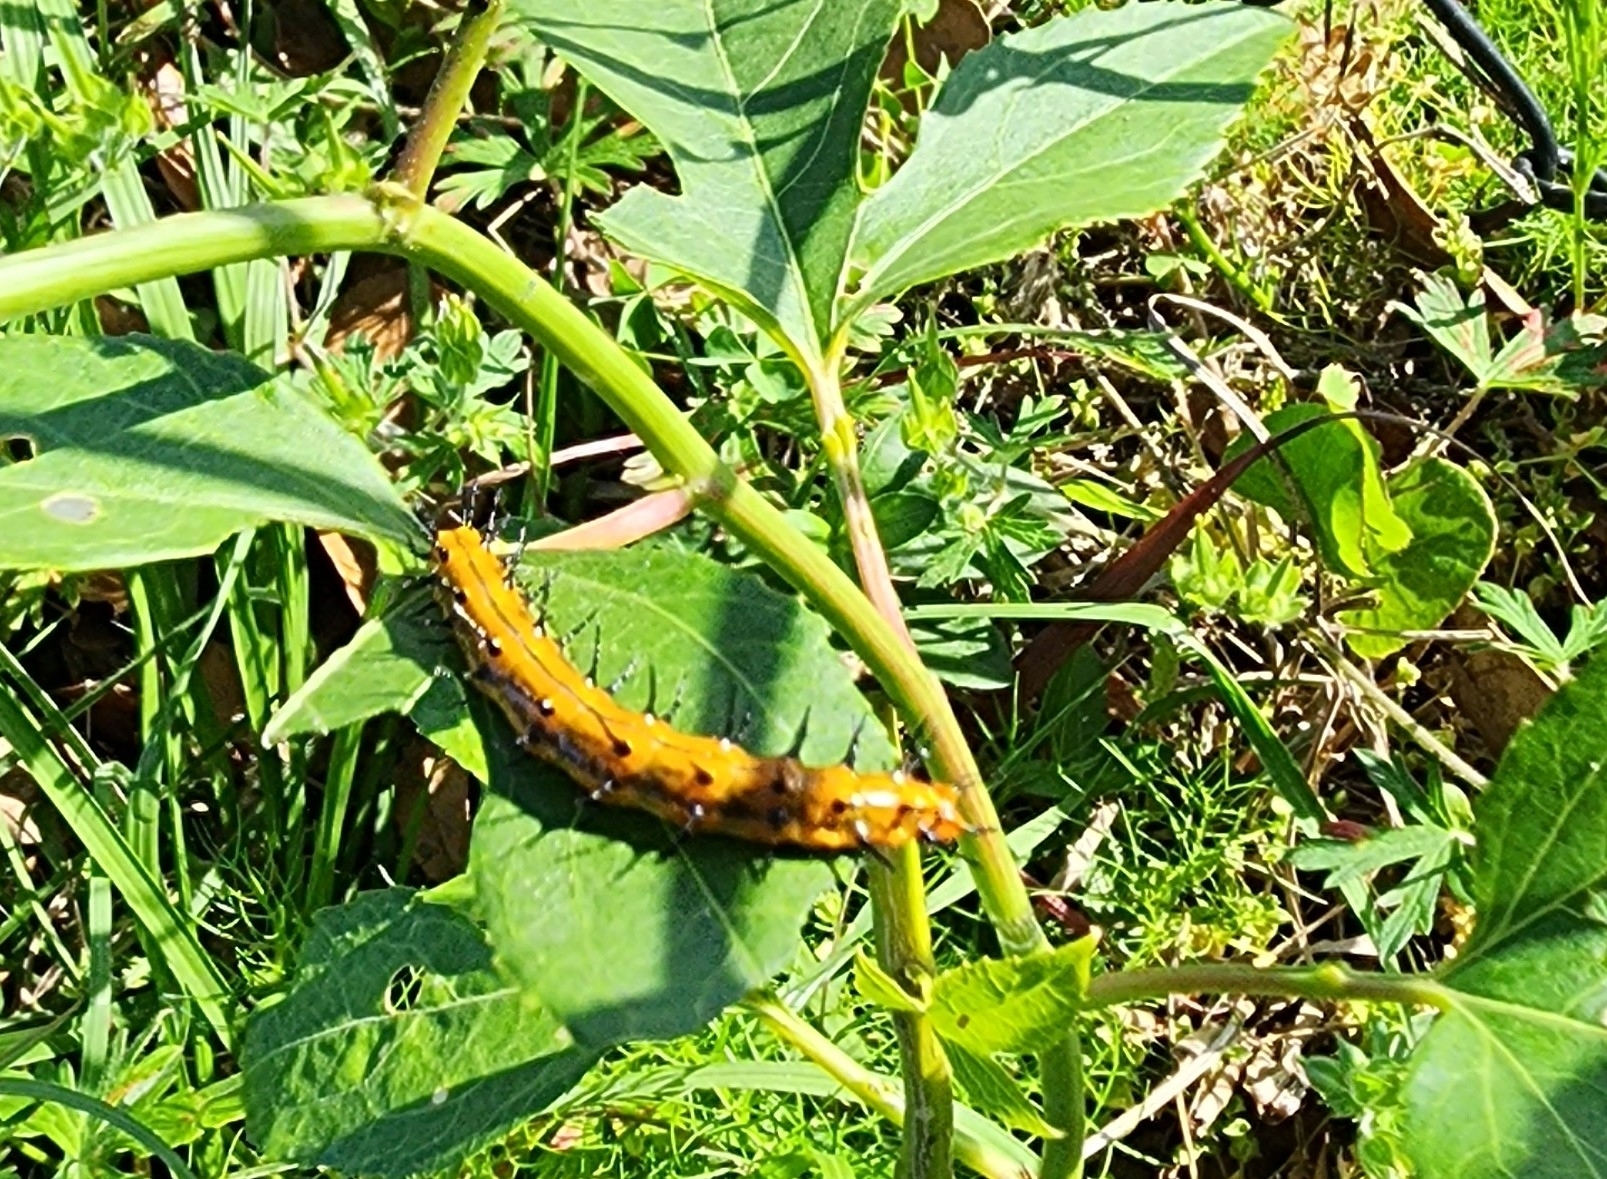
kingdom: Animalia
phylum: Arthropoda
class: Insecta
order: Lepidoptera
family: Nymphalidae
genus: Dione
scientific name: Dione vanillae
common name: Gulf fritillary
